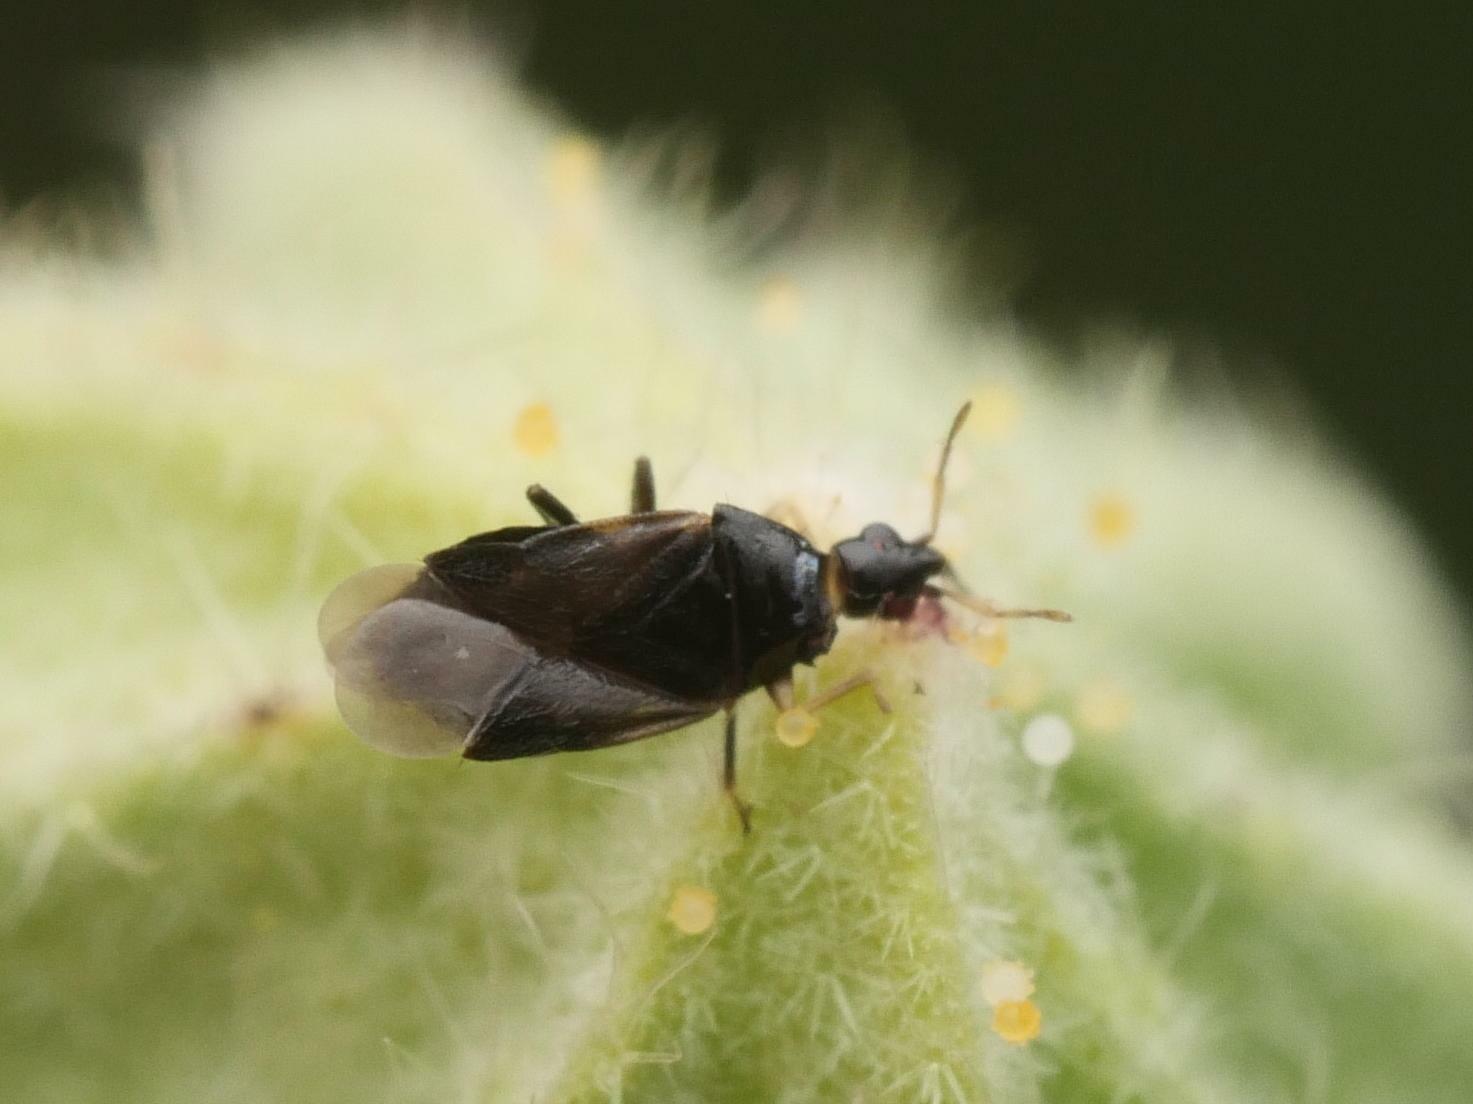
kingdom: Animalia
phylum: Arthropoda
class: Insecta
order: Hemiptera
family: Anthocoridae
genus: Orius
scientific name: Orius niger
